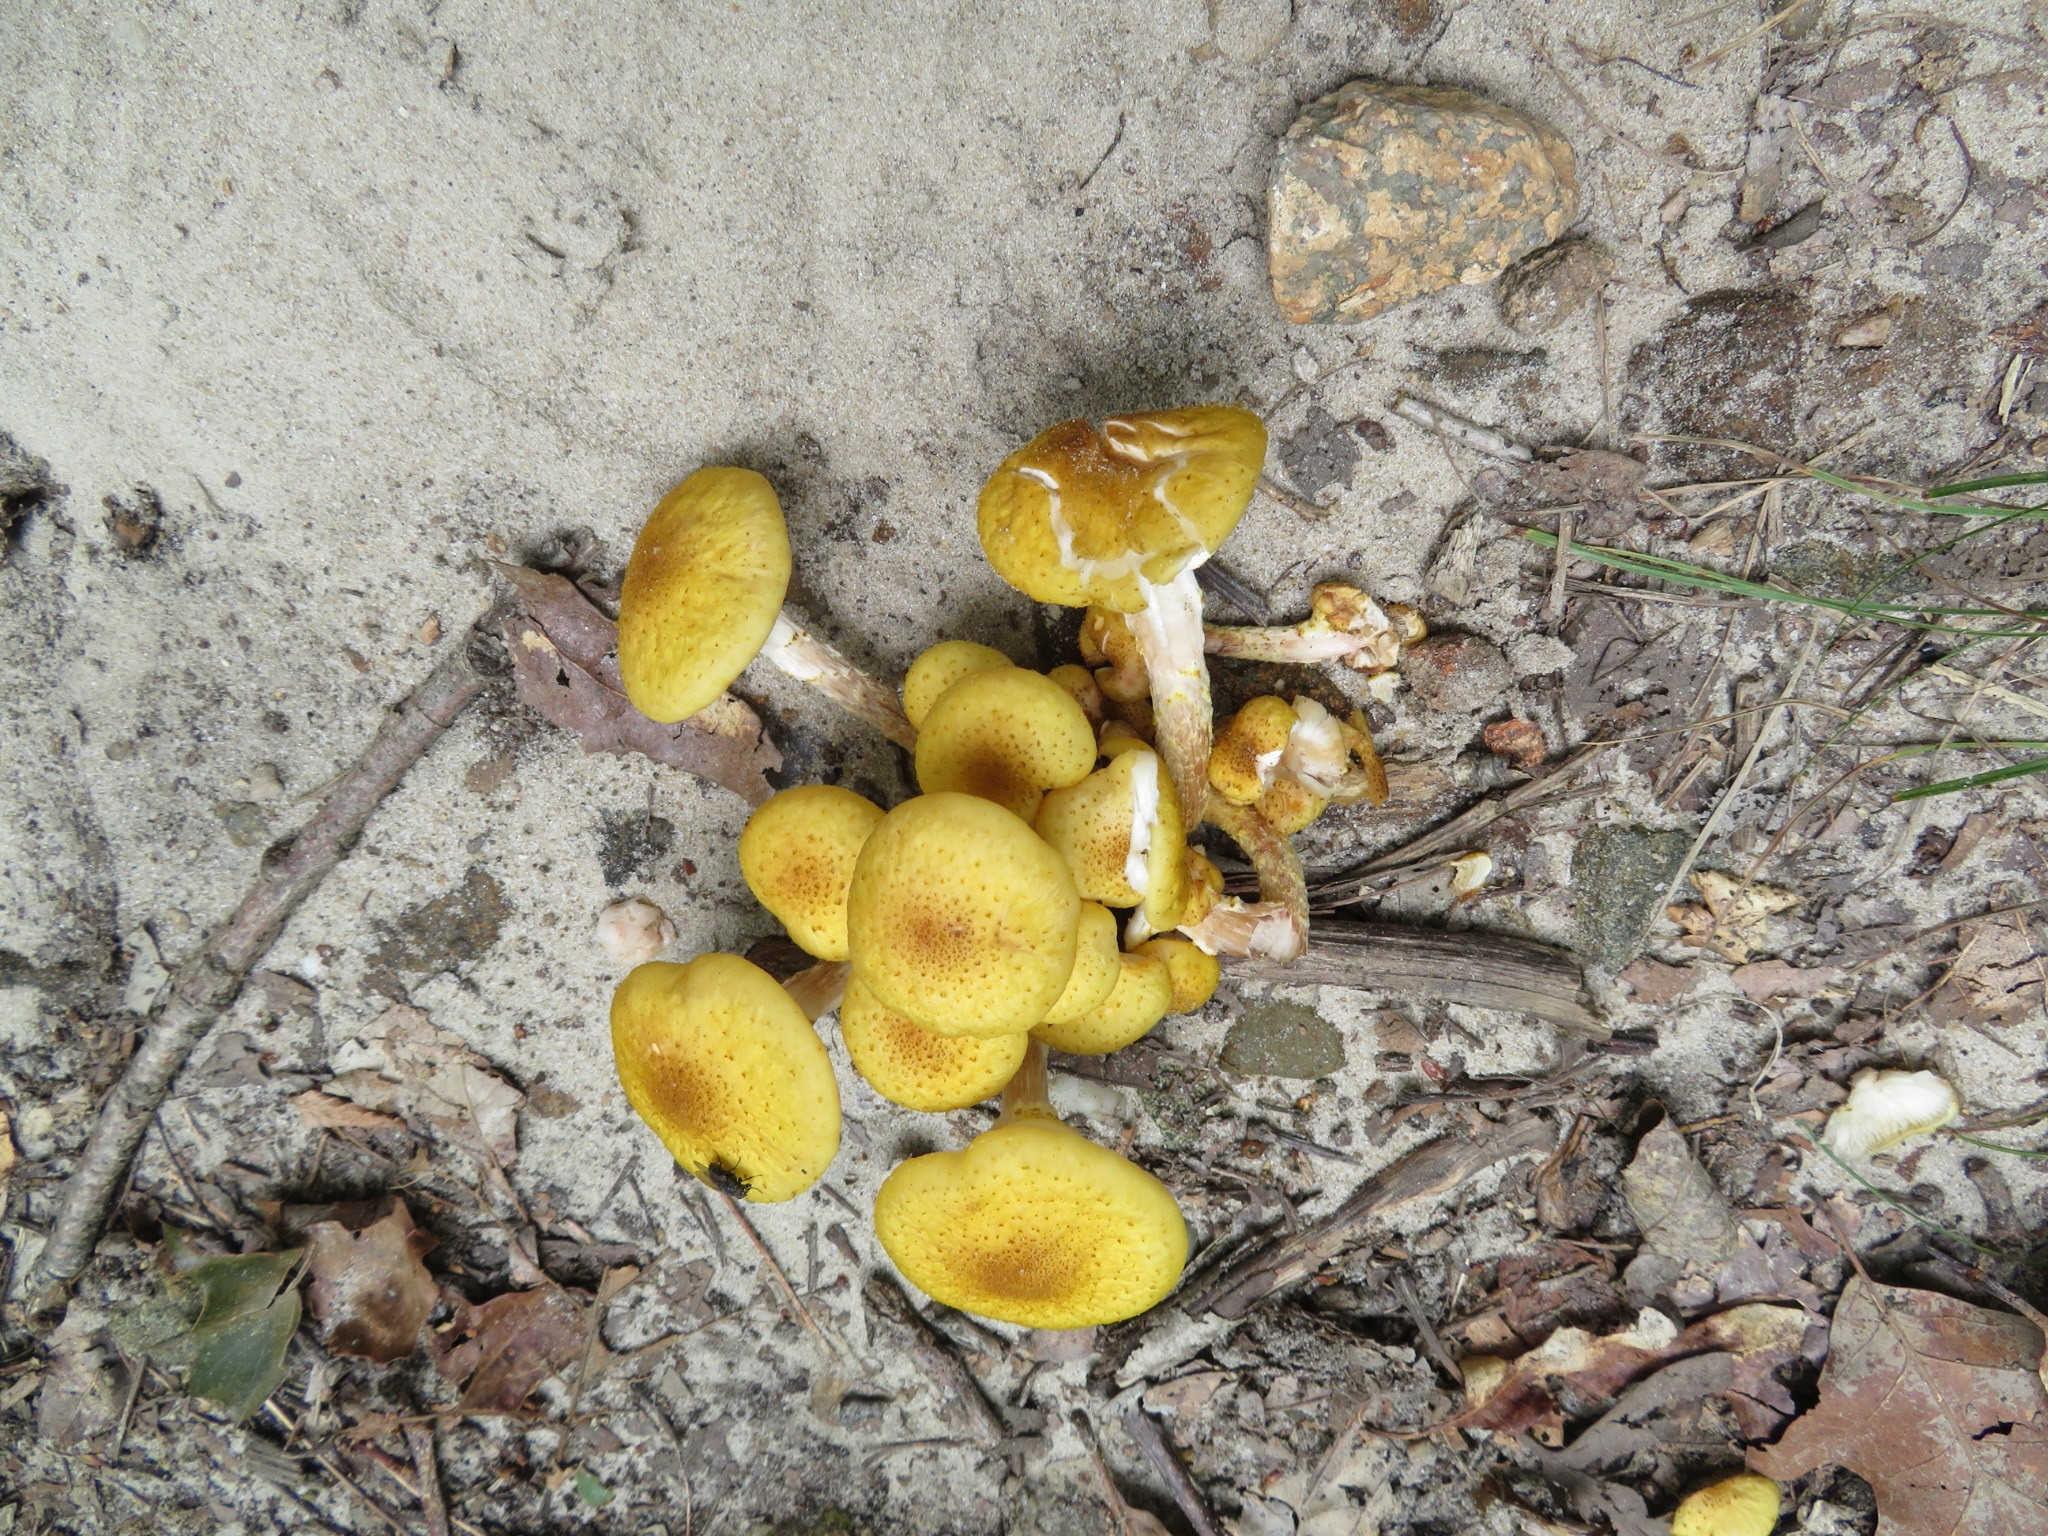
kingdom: Fungi
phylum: Basidiomycota
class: Agaricomycetes
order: Agaricales
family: Physalacriaceae
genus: Armillaria
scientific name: Armillaria mellea
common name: Honey fungus
